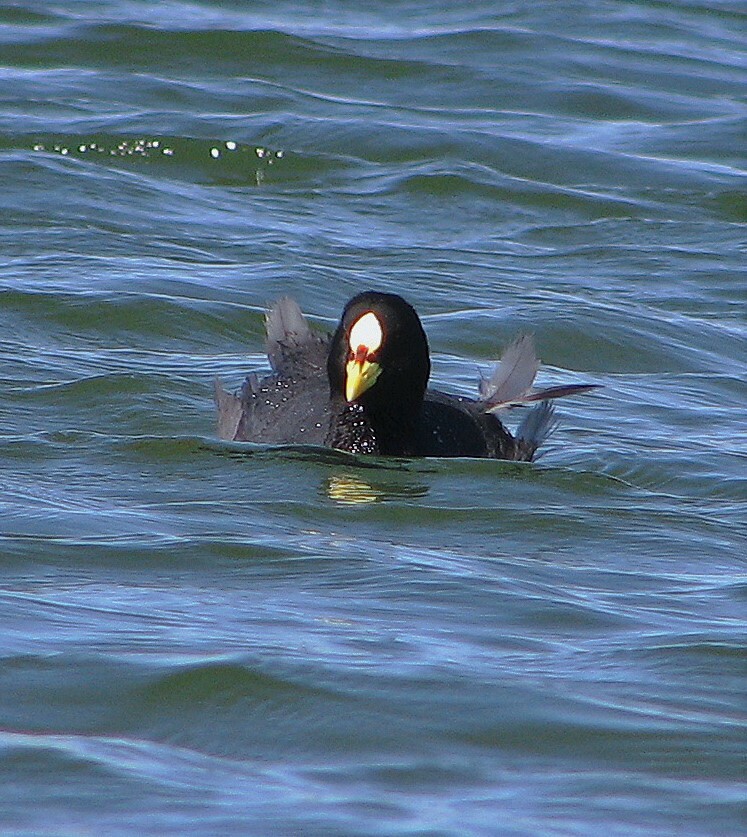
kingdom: Animalia
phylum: Chordata
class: Aves
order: Gruiformes
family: Rallidae
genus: Fulica
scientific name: Fulica armillata
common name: Red-gartered coot
